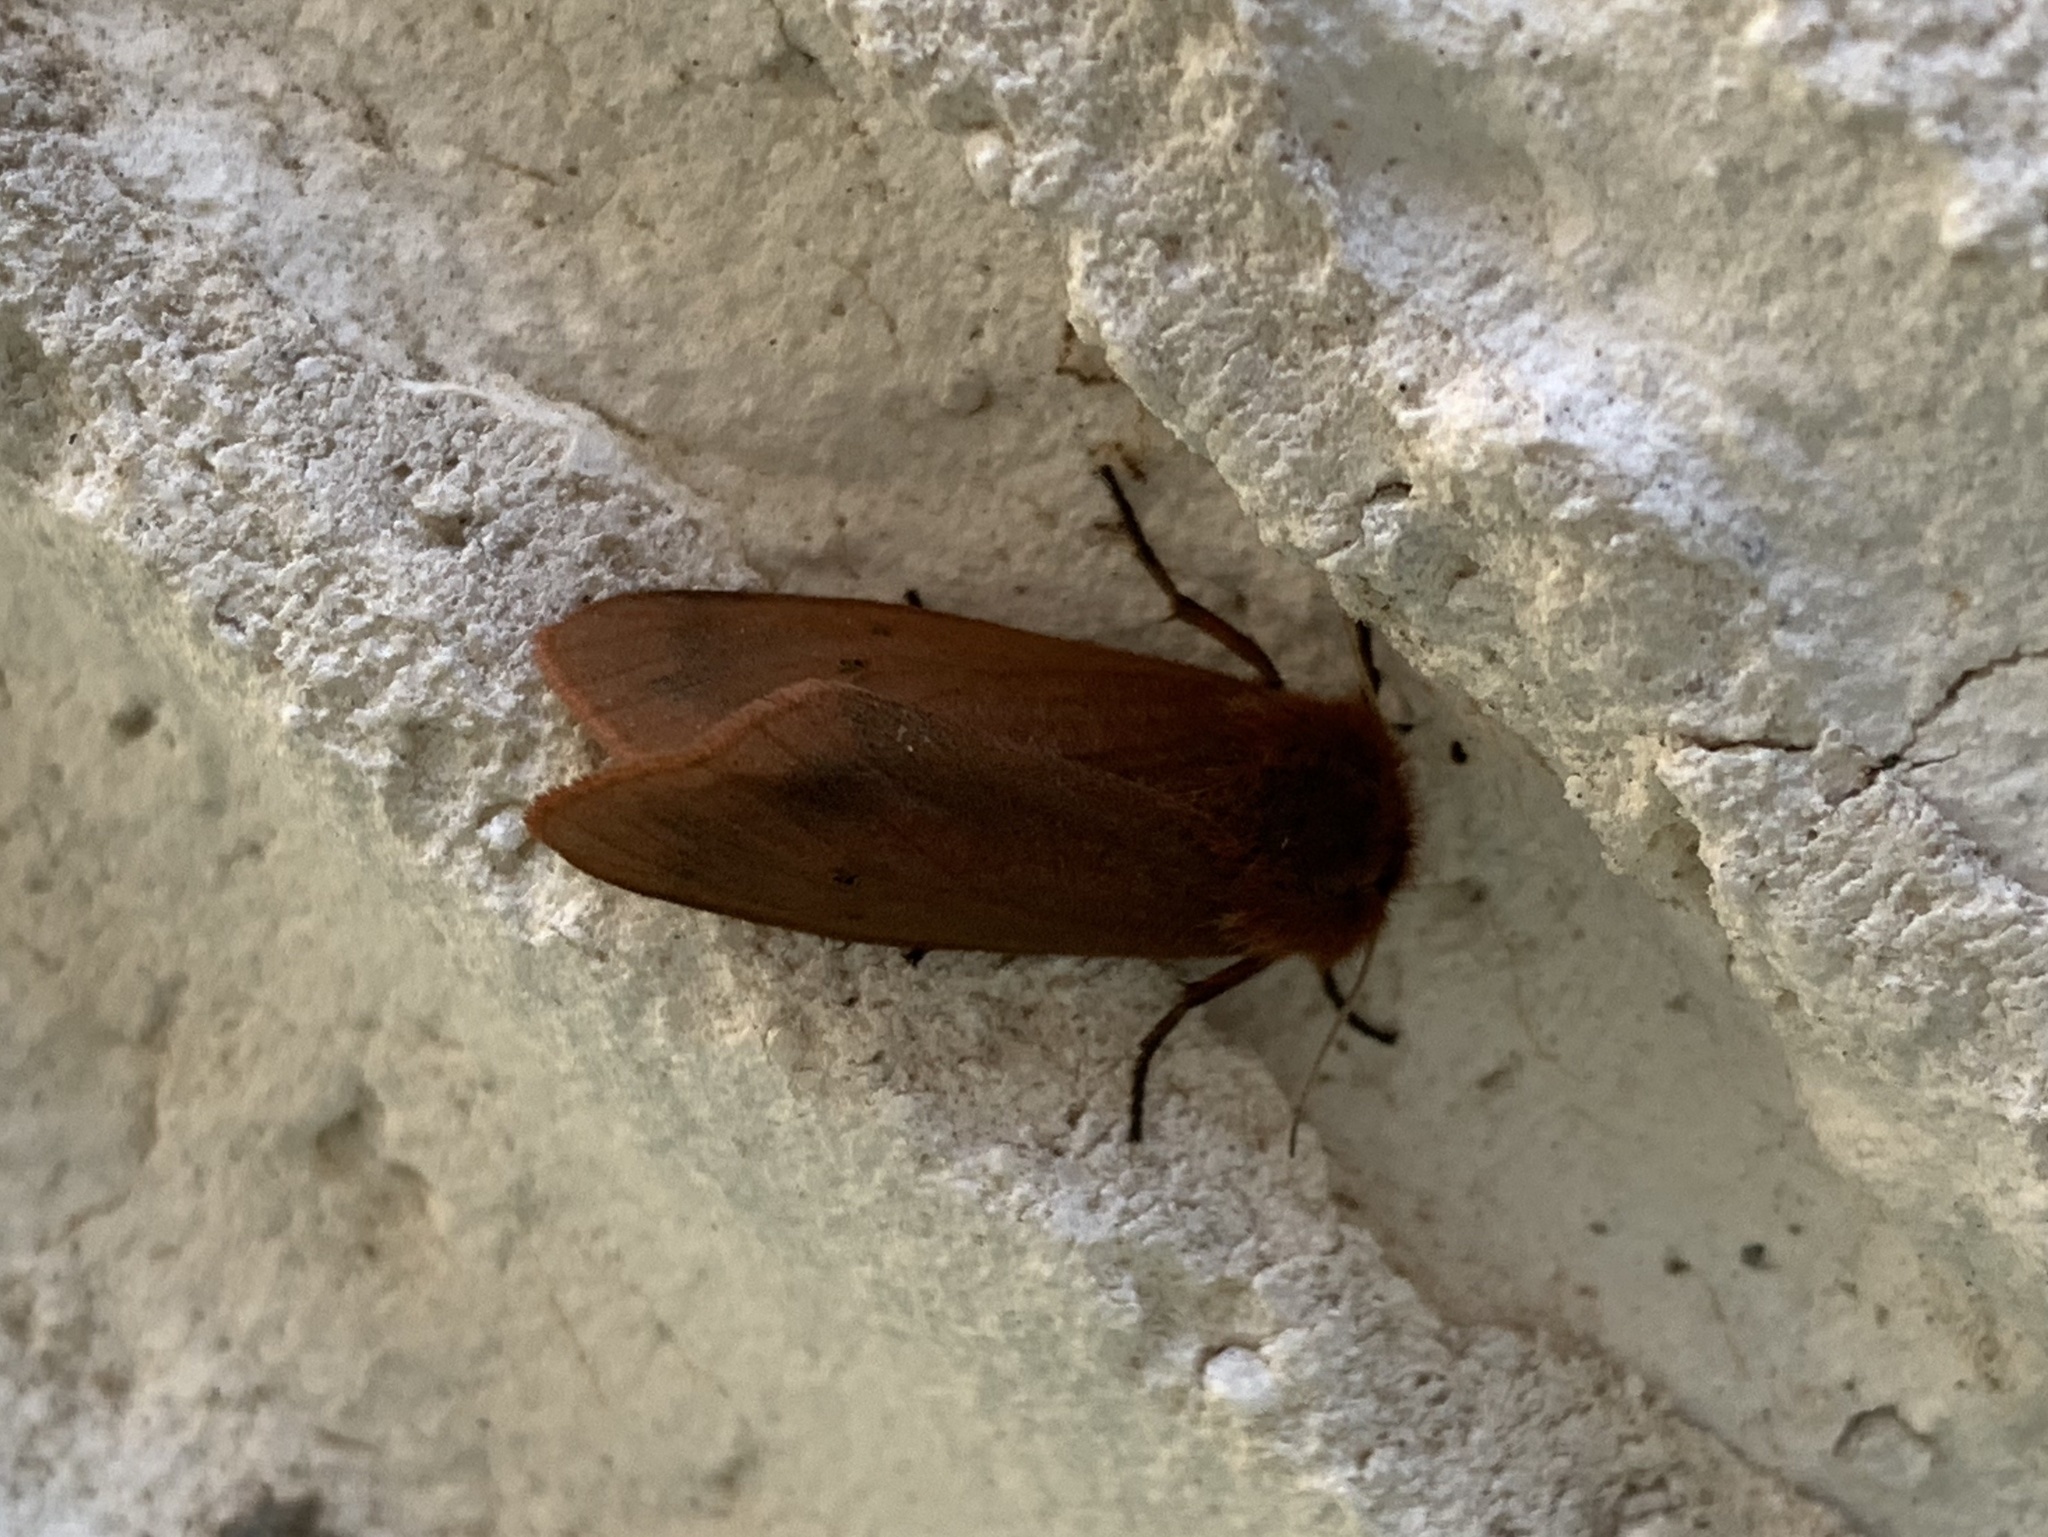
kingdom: Animalia
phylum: Arthropoda
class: Insecta
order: Lepidoptera
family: Erebidae
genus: Phragmatobia
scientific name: Phragmatobia fuliginosa
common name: Ruby tiger
